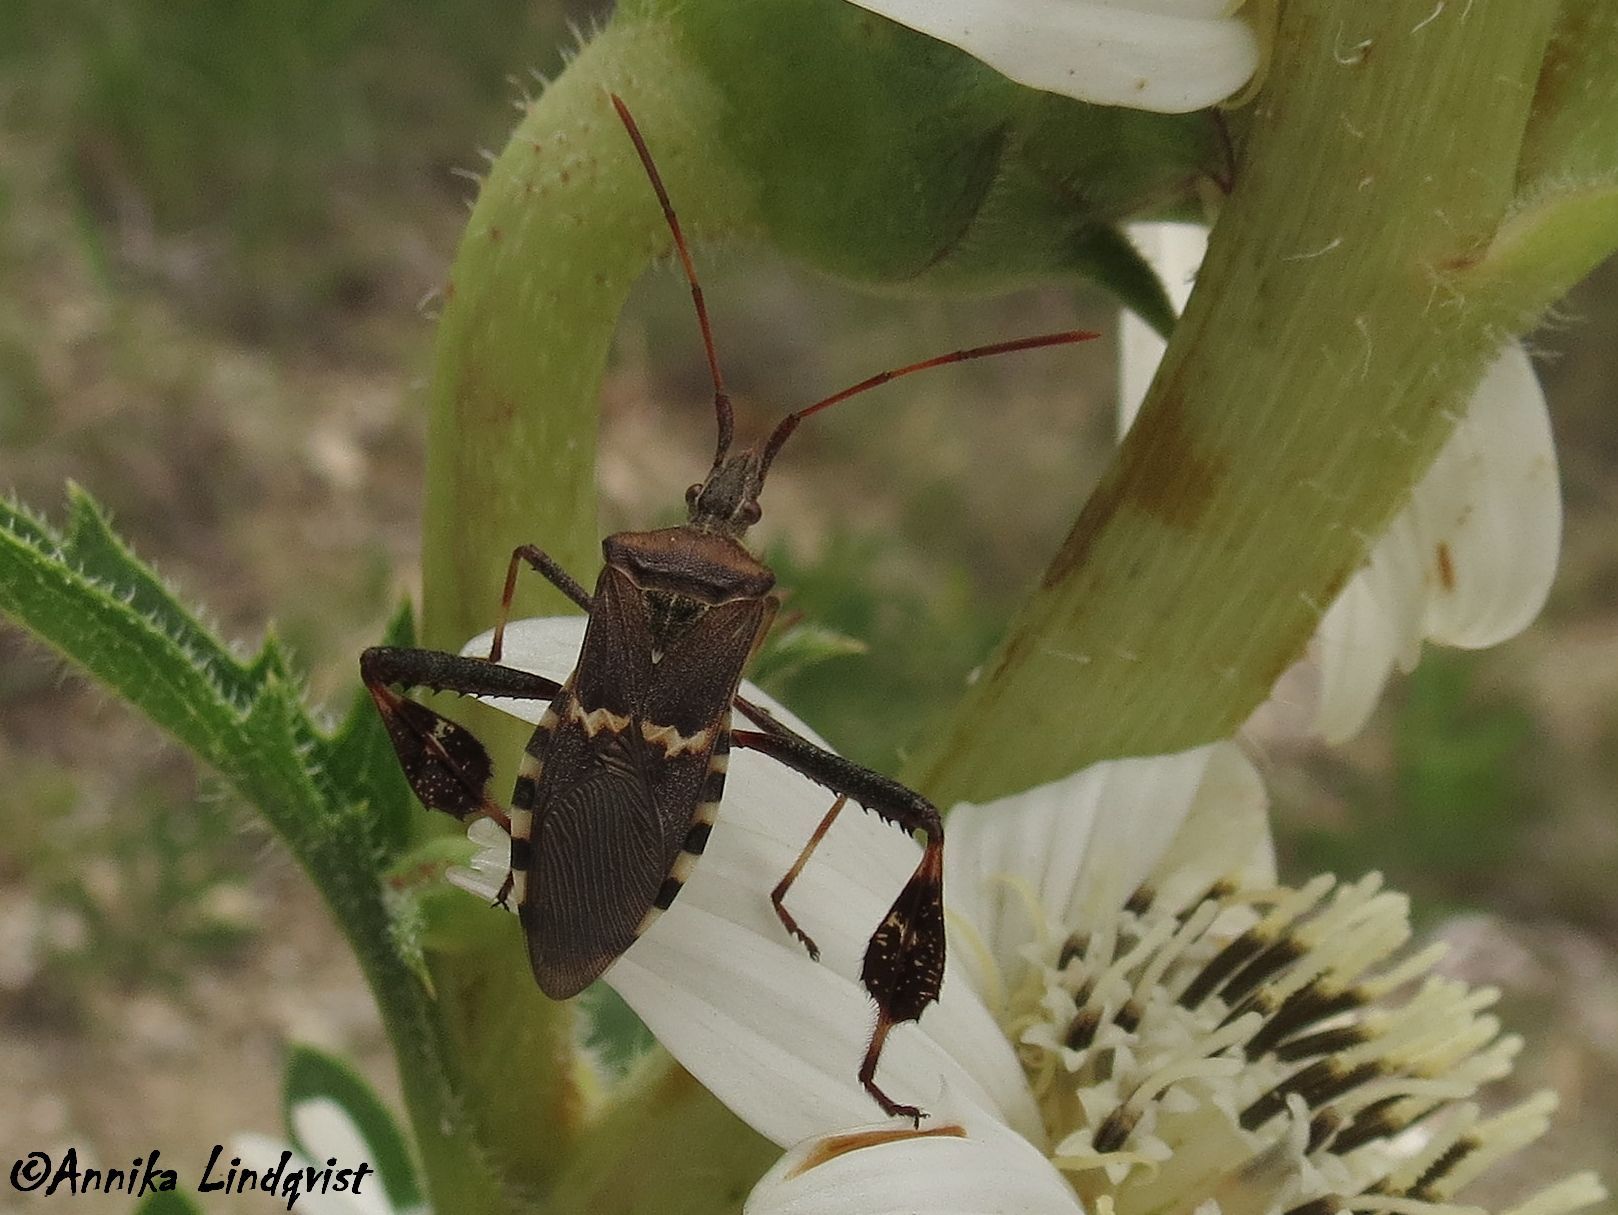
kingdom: Animalia
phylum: Arthropoda
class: Insecta
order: Hemiptera
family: Coreidae
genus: Leptoglossus
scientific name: Leptoglossus clypealis
